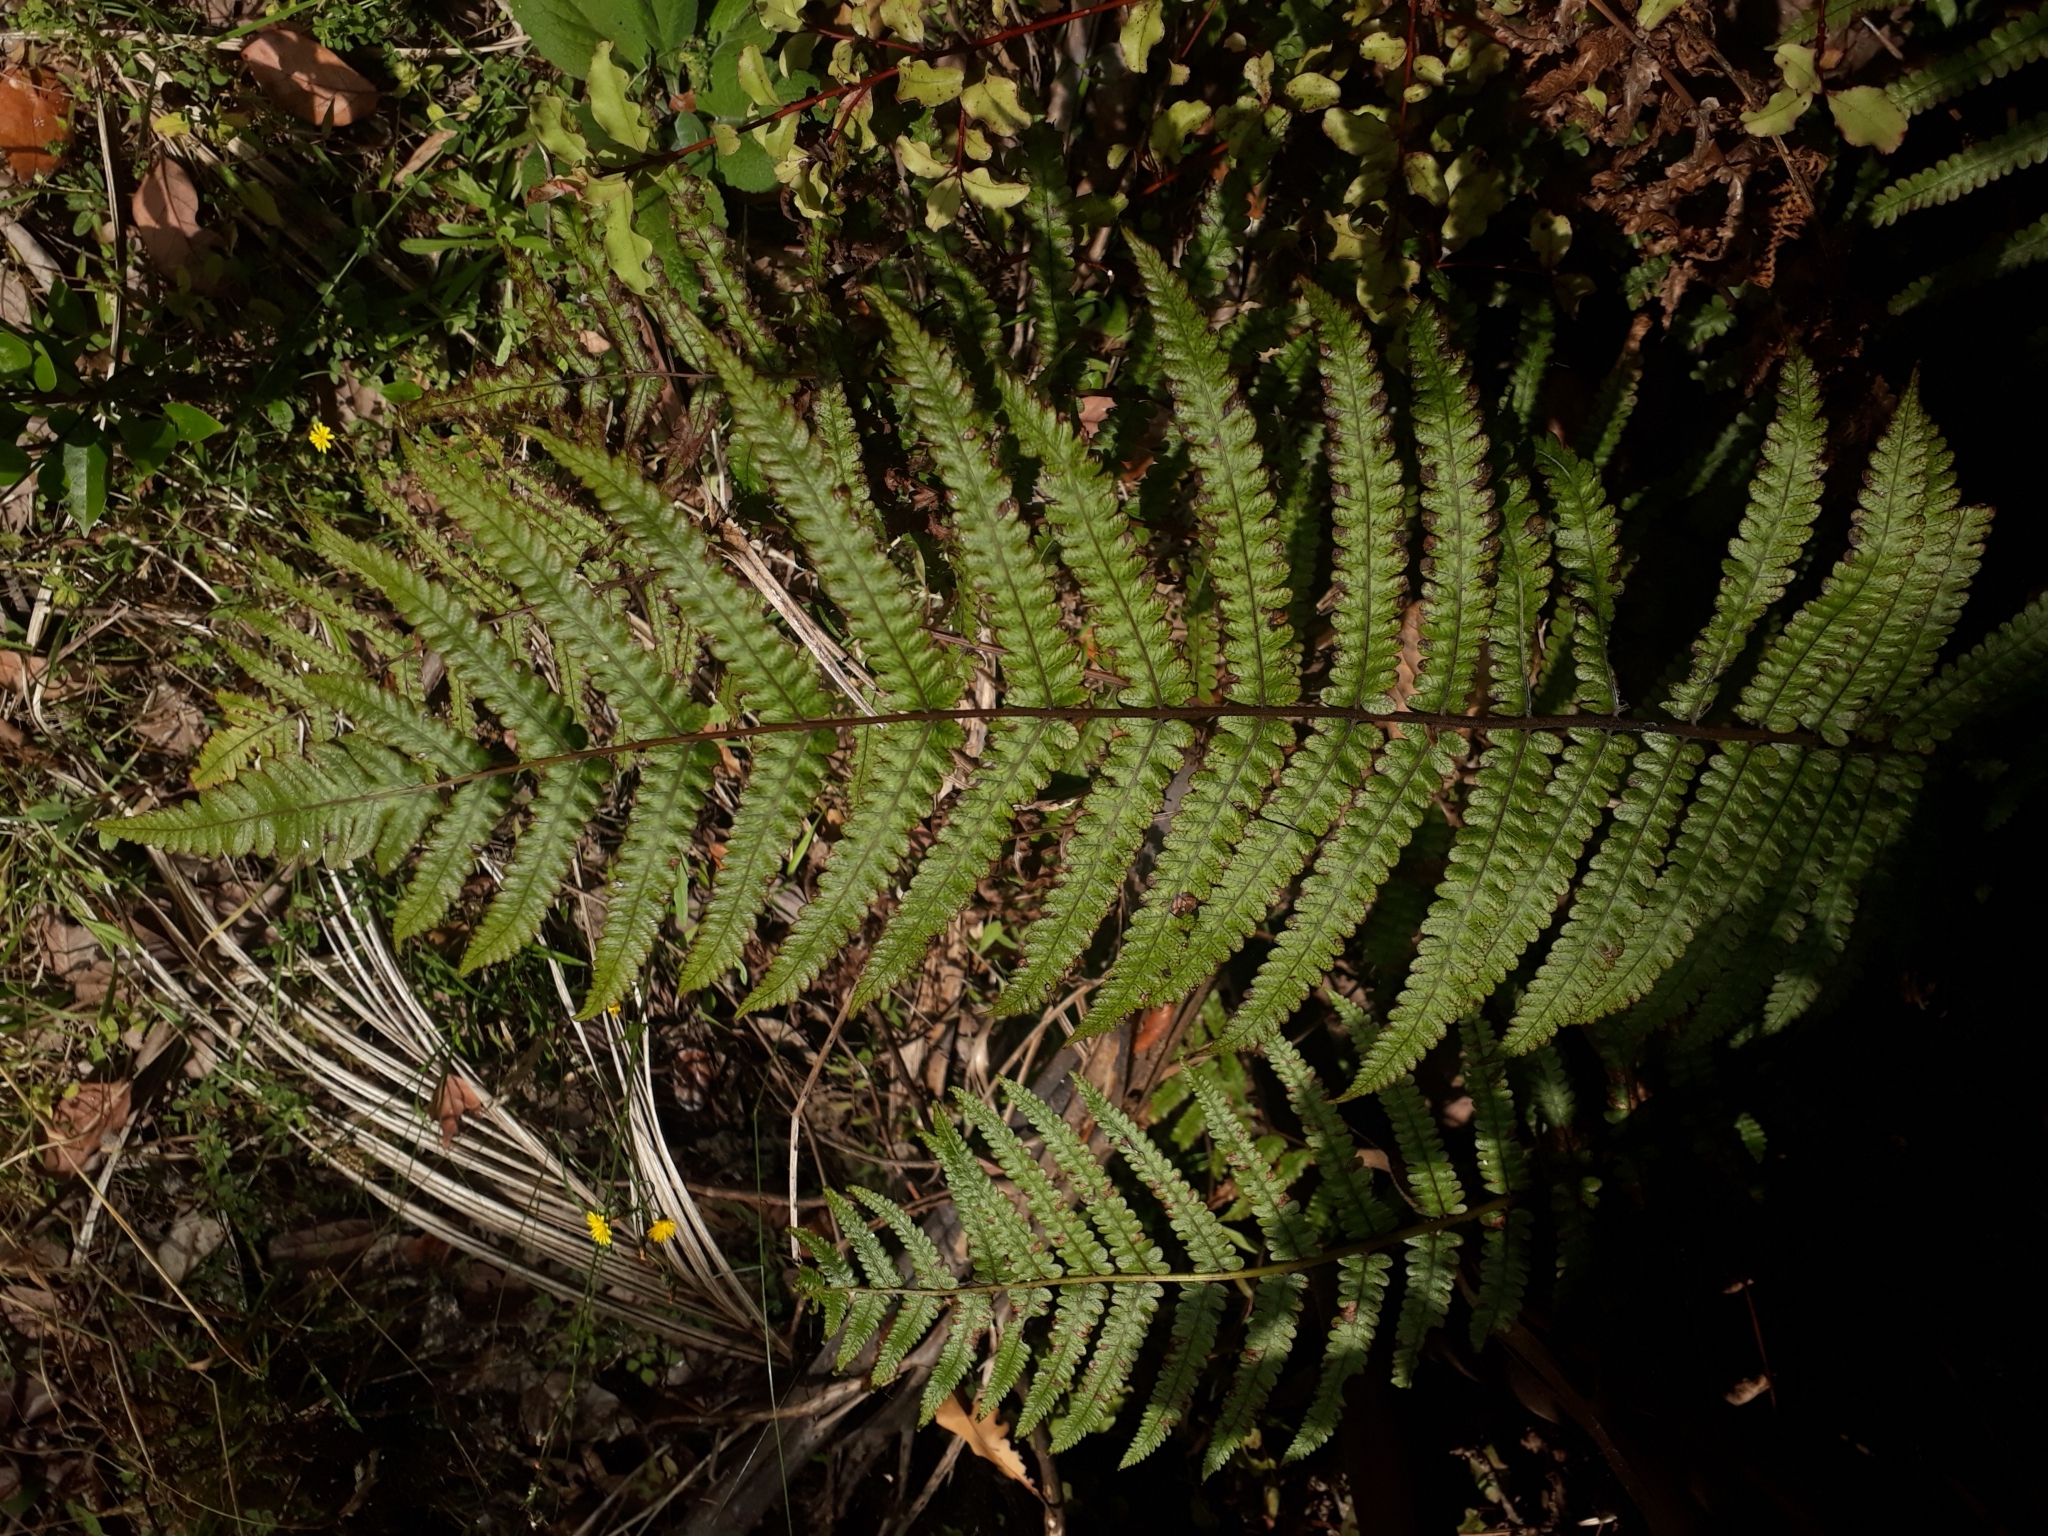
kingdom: Plantae
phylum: Tracheophyta
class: Polypodiopsida
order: Polypodiales
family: Thelypteridaceae
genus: Pakau
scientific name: Pakau pennigera
